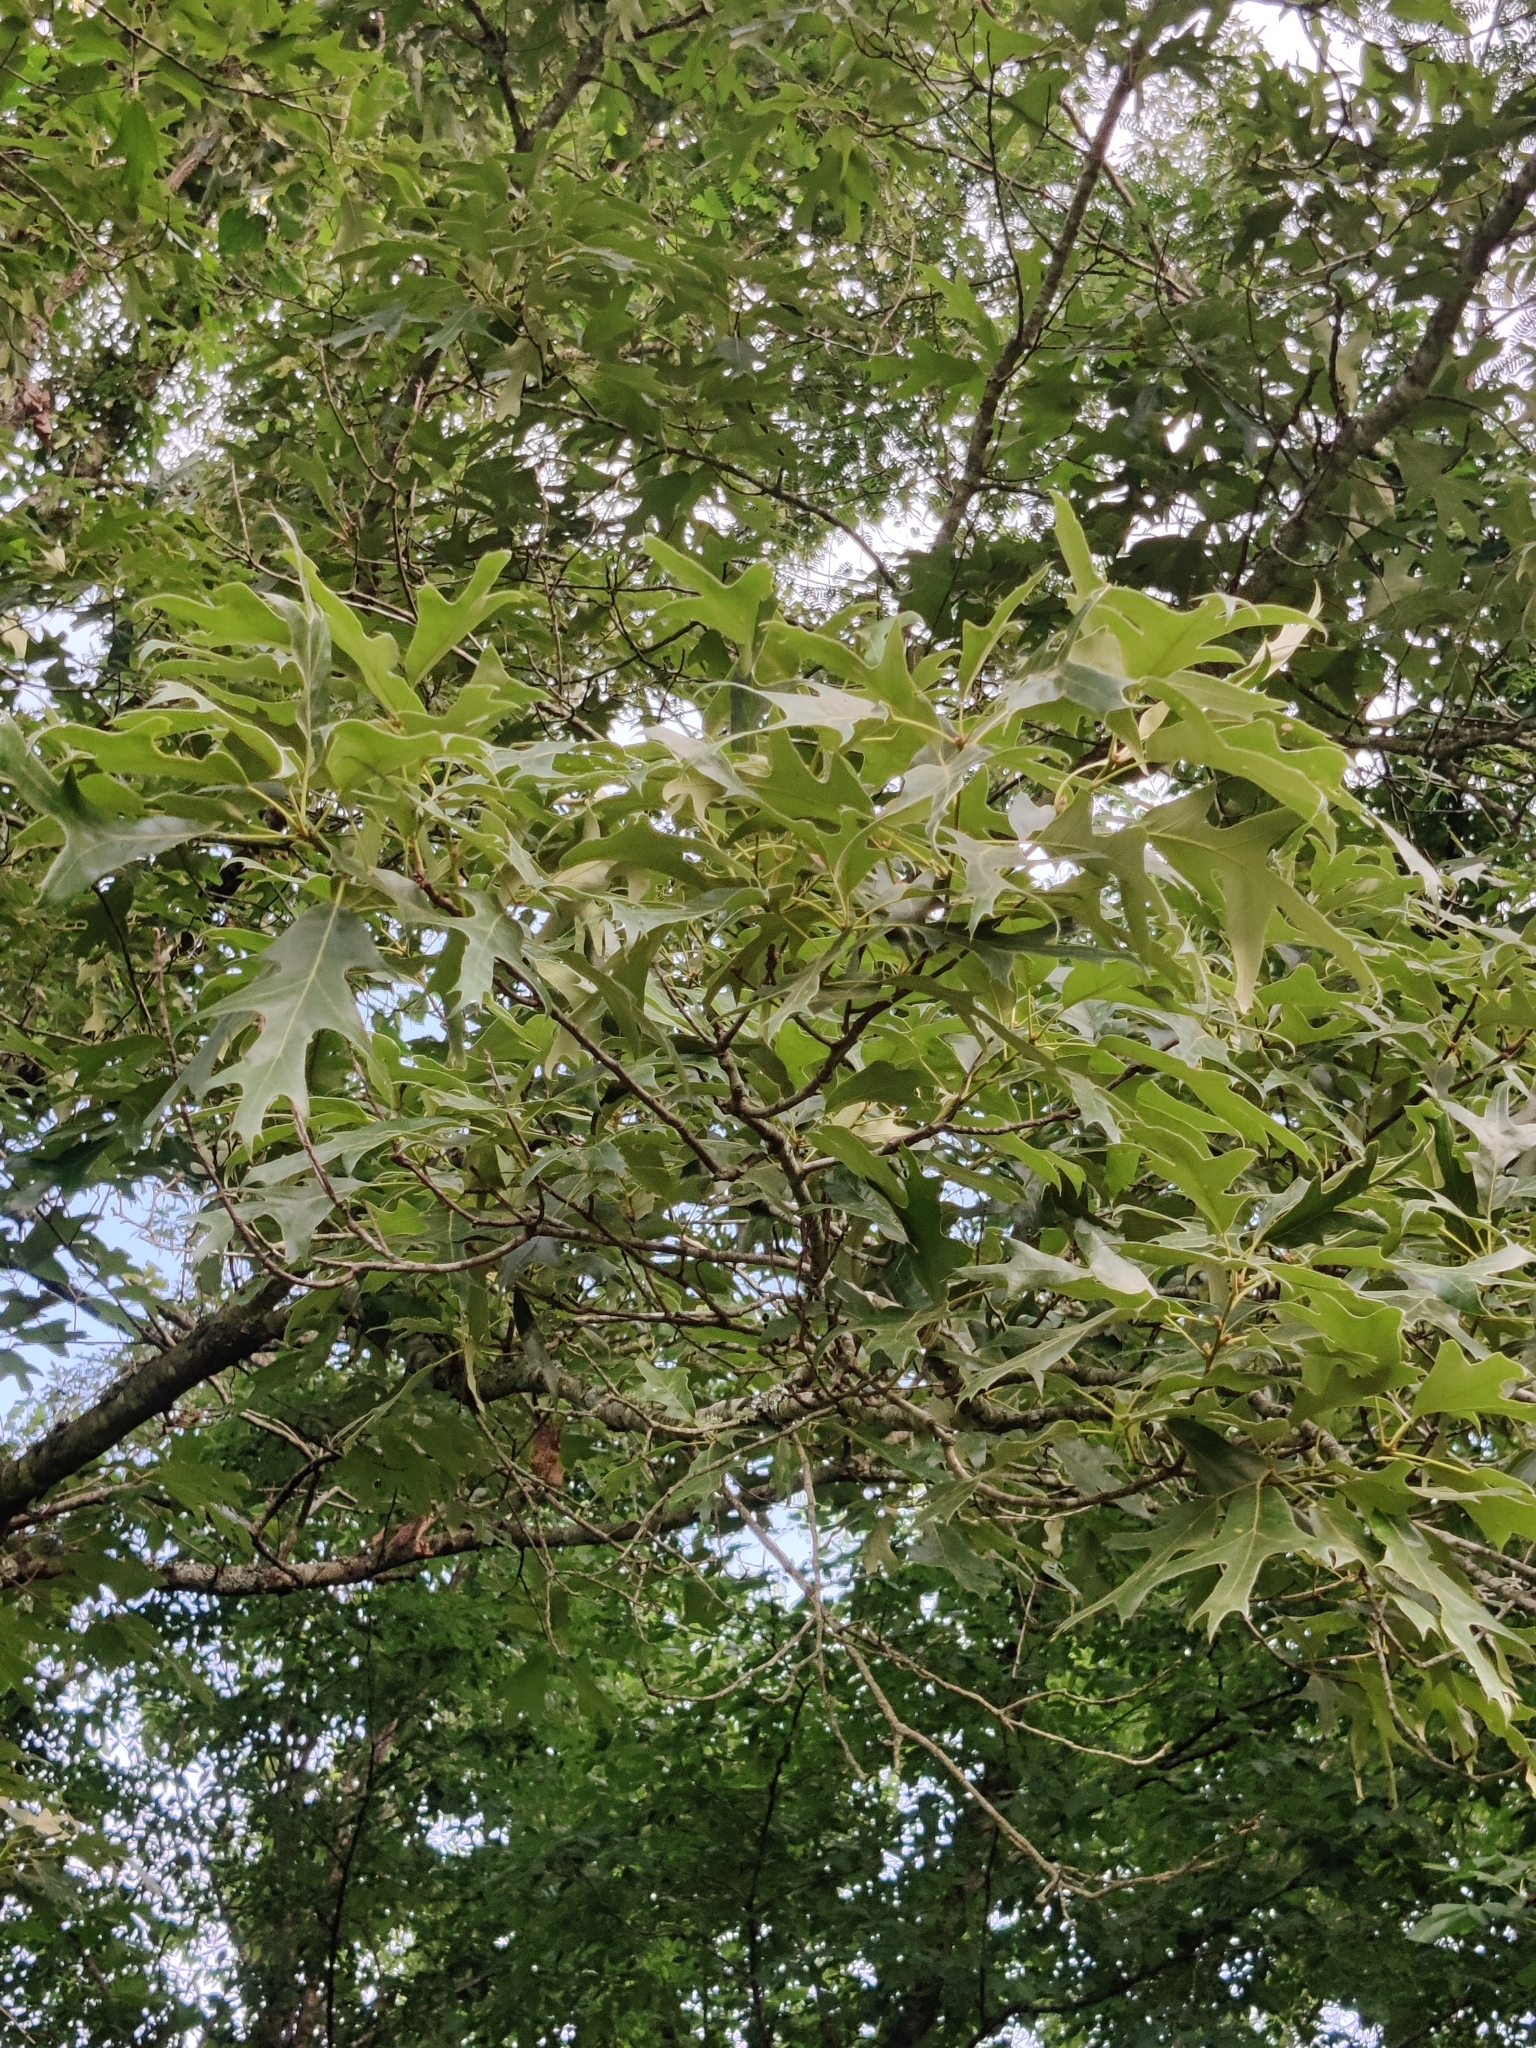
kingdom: Plantae
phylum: Tracheophyta
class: Magnoliopsida
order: Fagales
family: Fagaceae
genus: Quercus
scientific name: Quercus falcata
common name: Southern red oak
